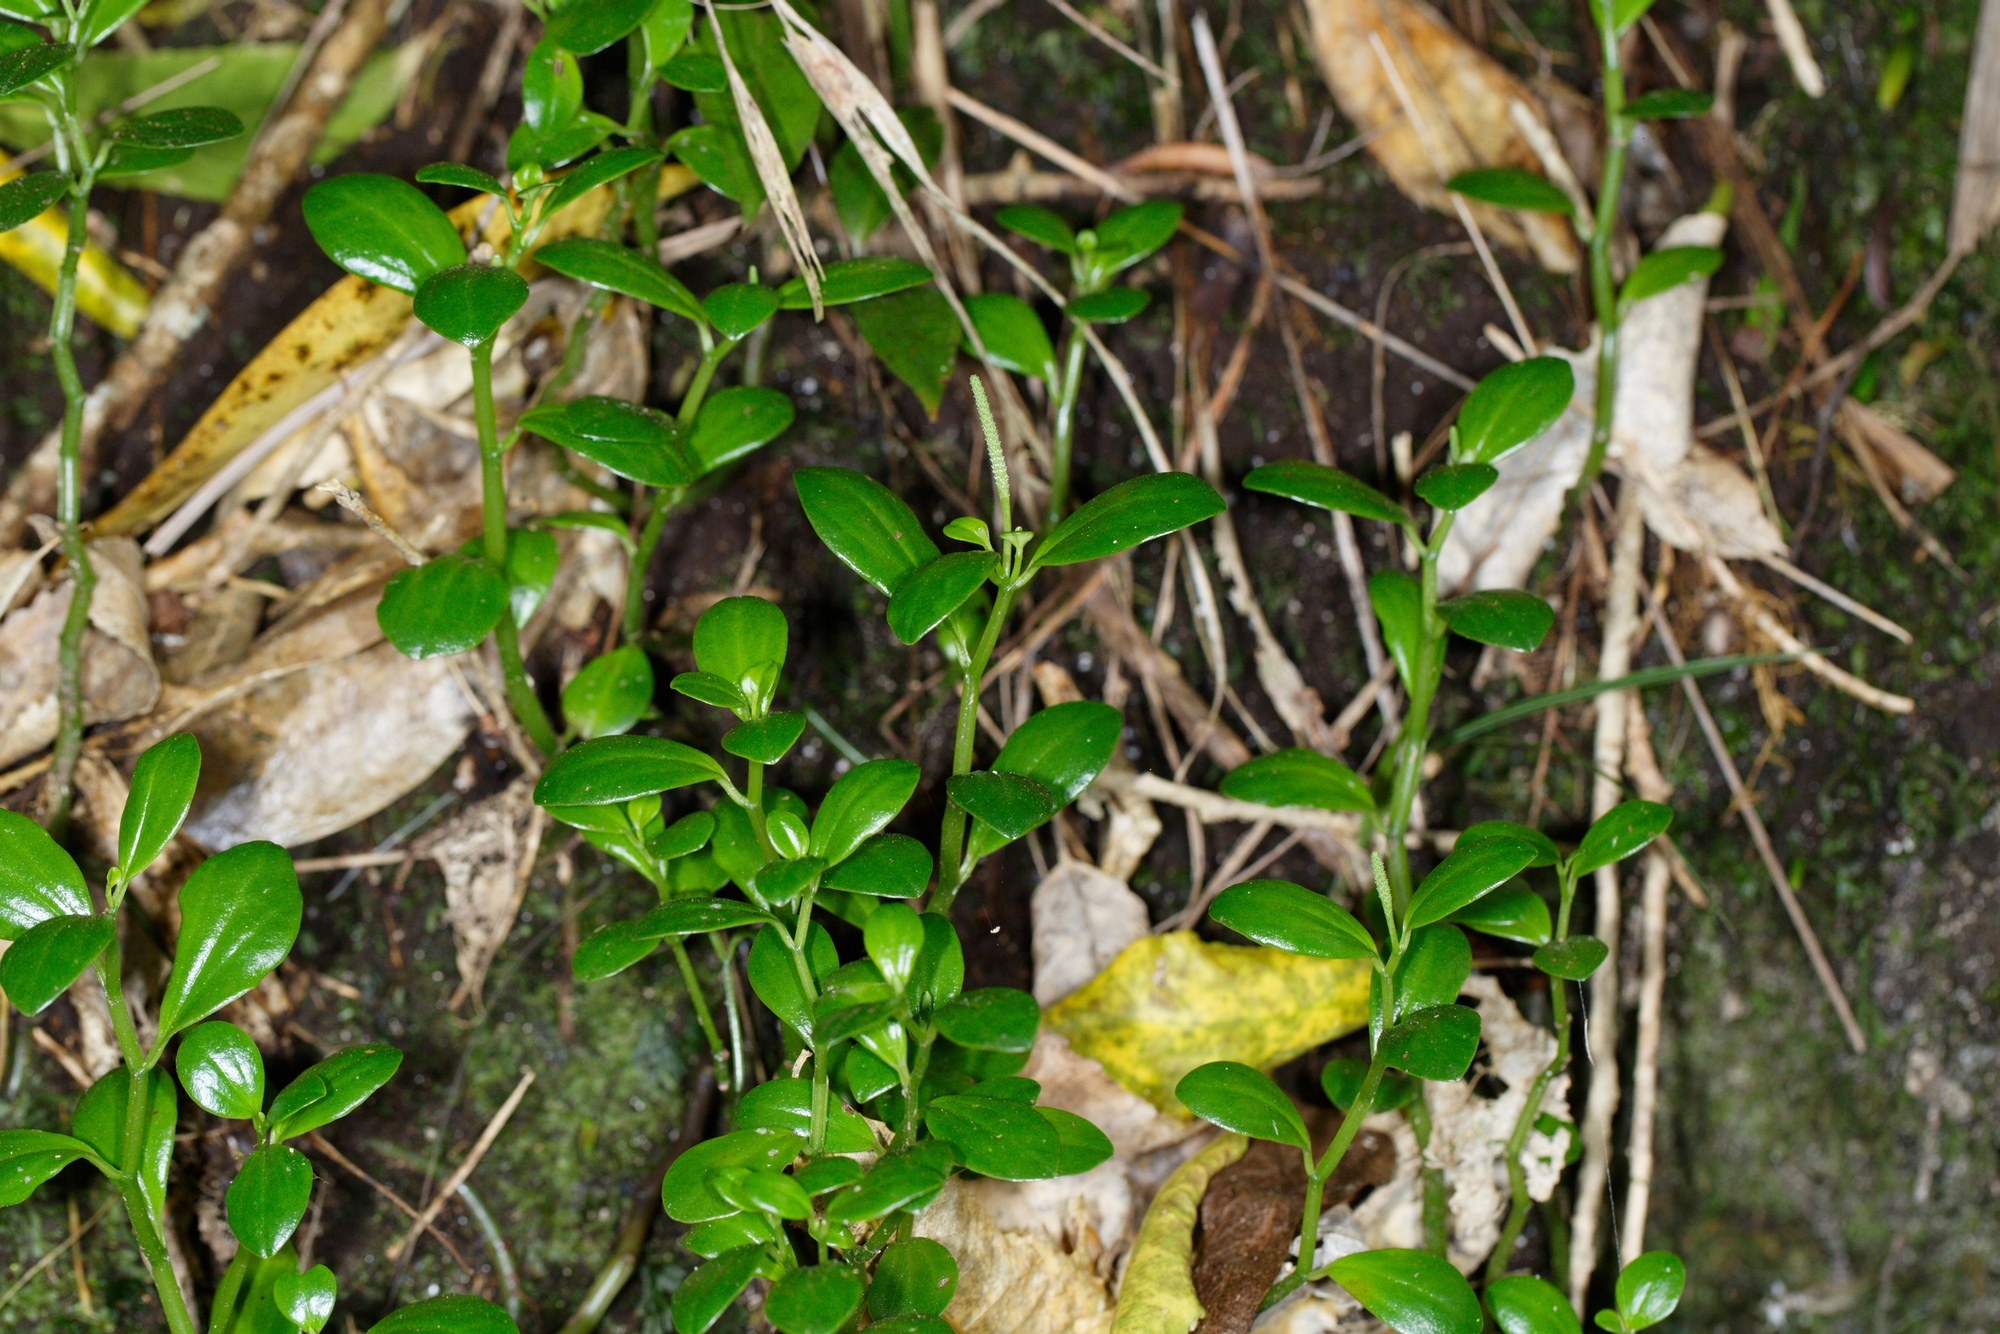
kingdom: Plantae
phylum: Tracheophyta
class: Magnoliopsida
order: Piperales
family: Piperaceae
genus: Peperomia
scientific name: Peperomia urvilleana
